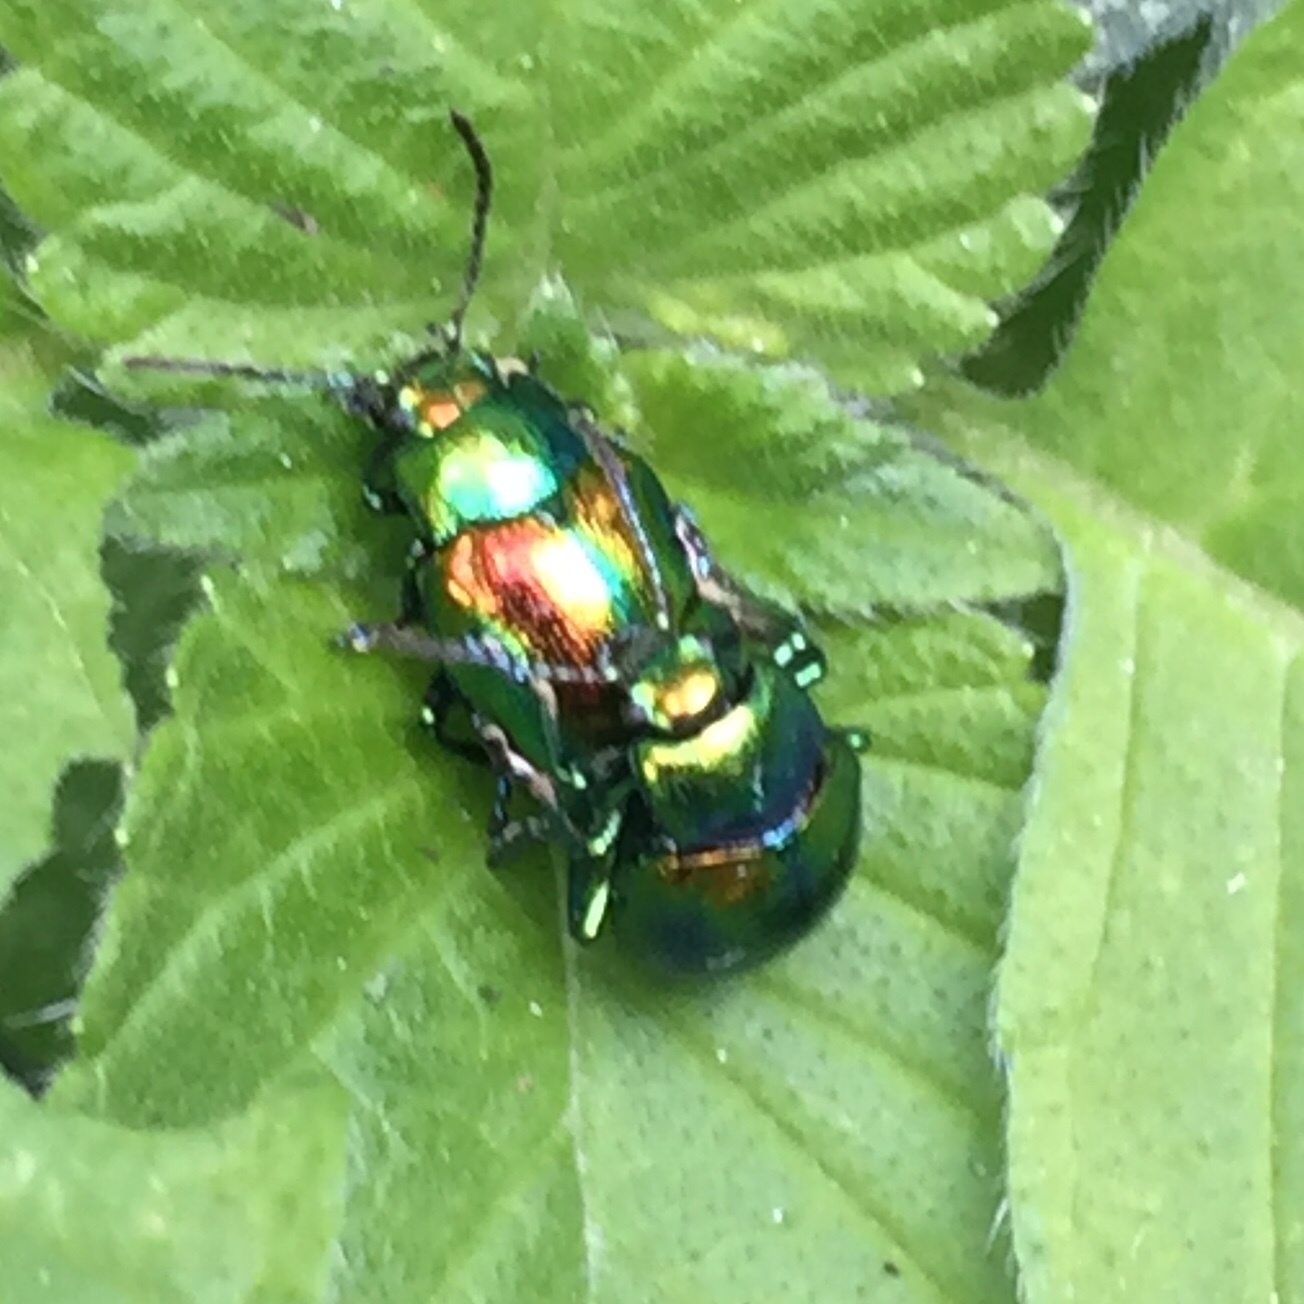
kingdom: Animalia
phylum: Arthropoda
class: Insecta
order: Coleoptera
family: Chrysomelidae
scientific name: Chrysomelidae
